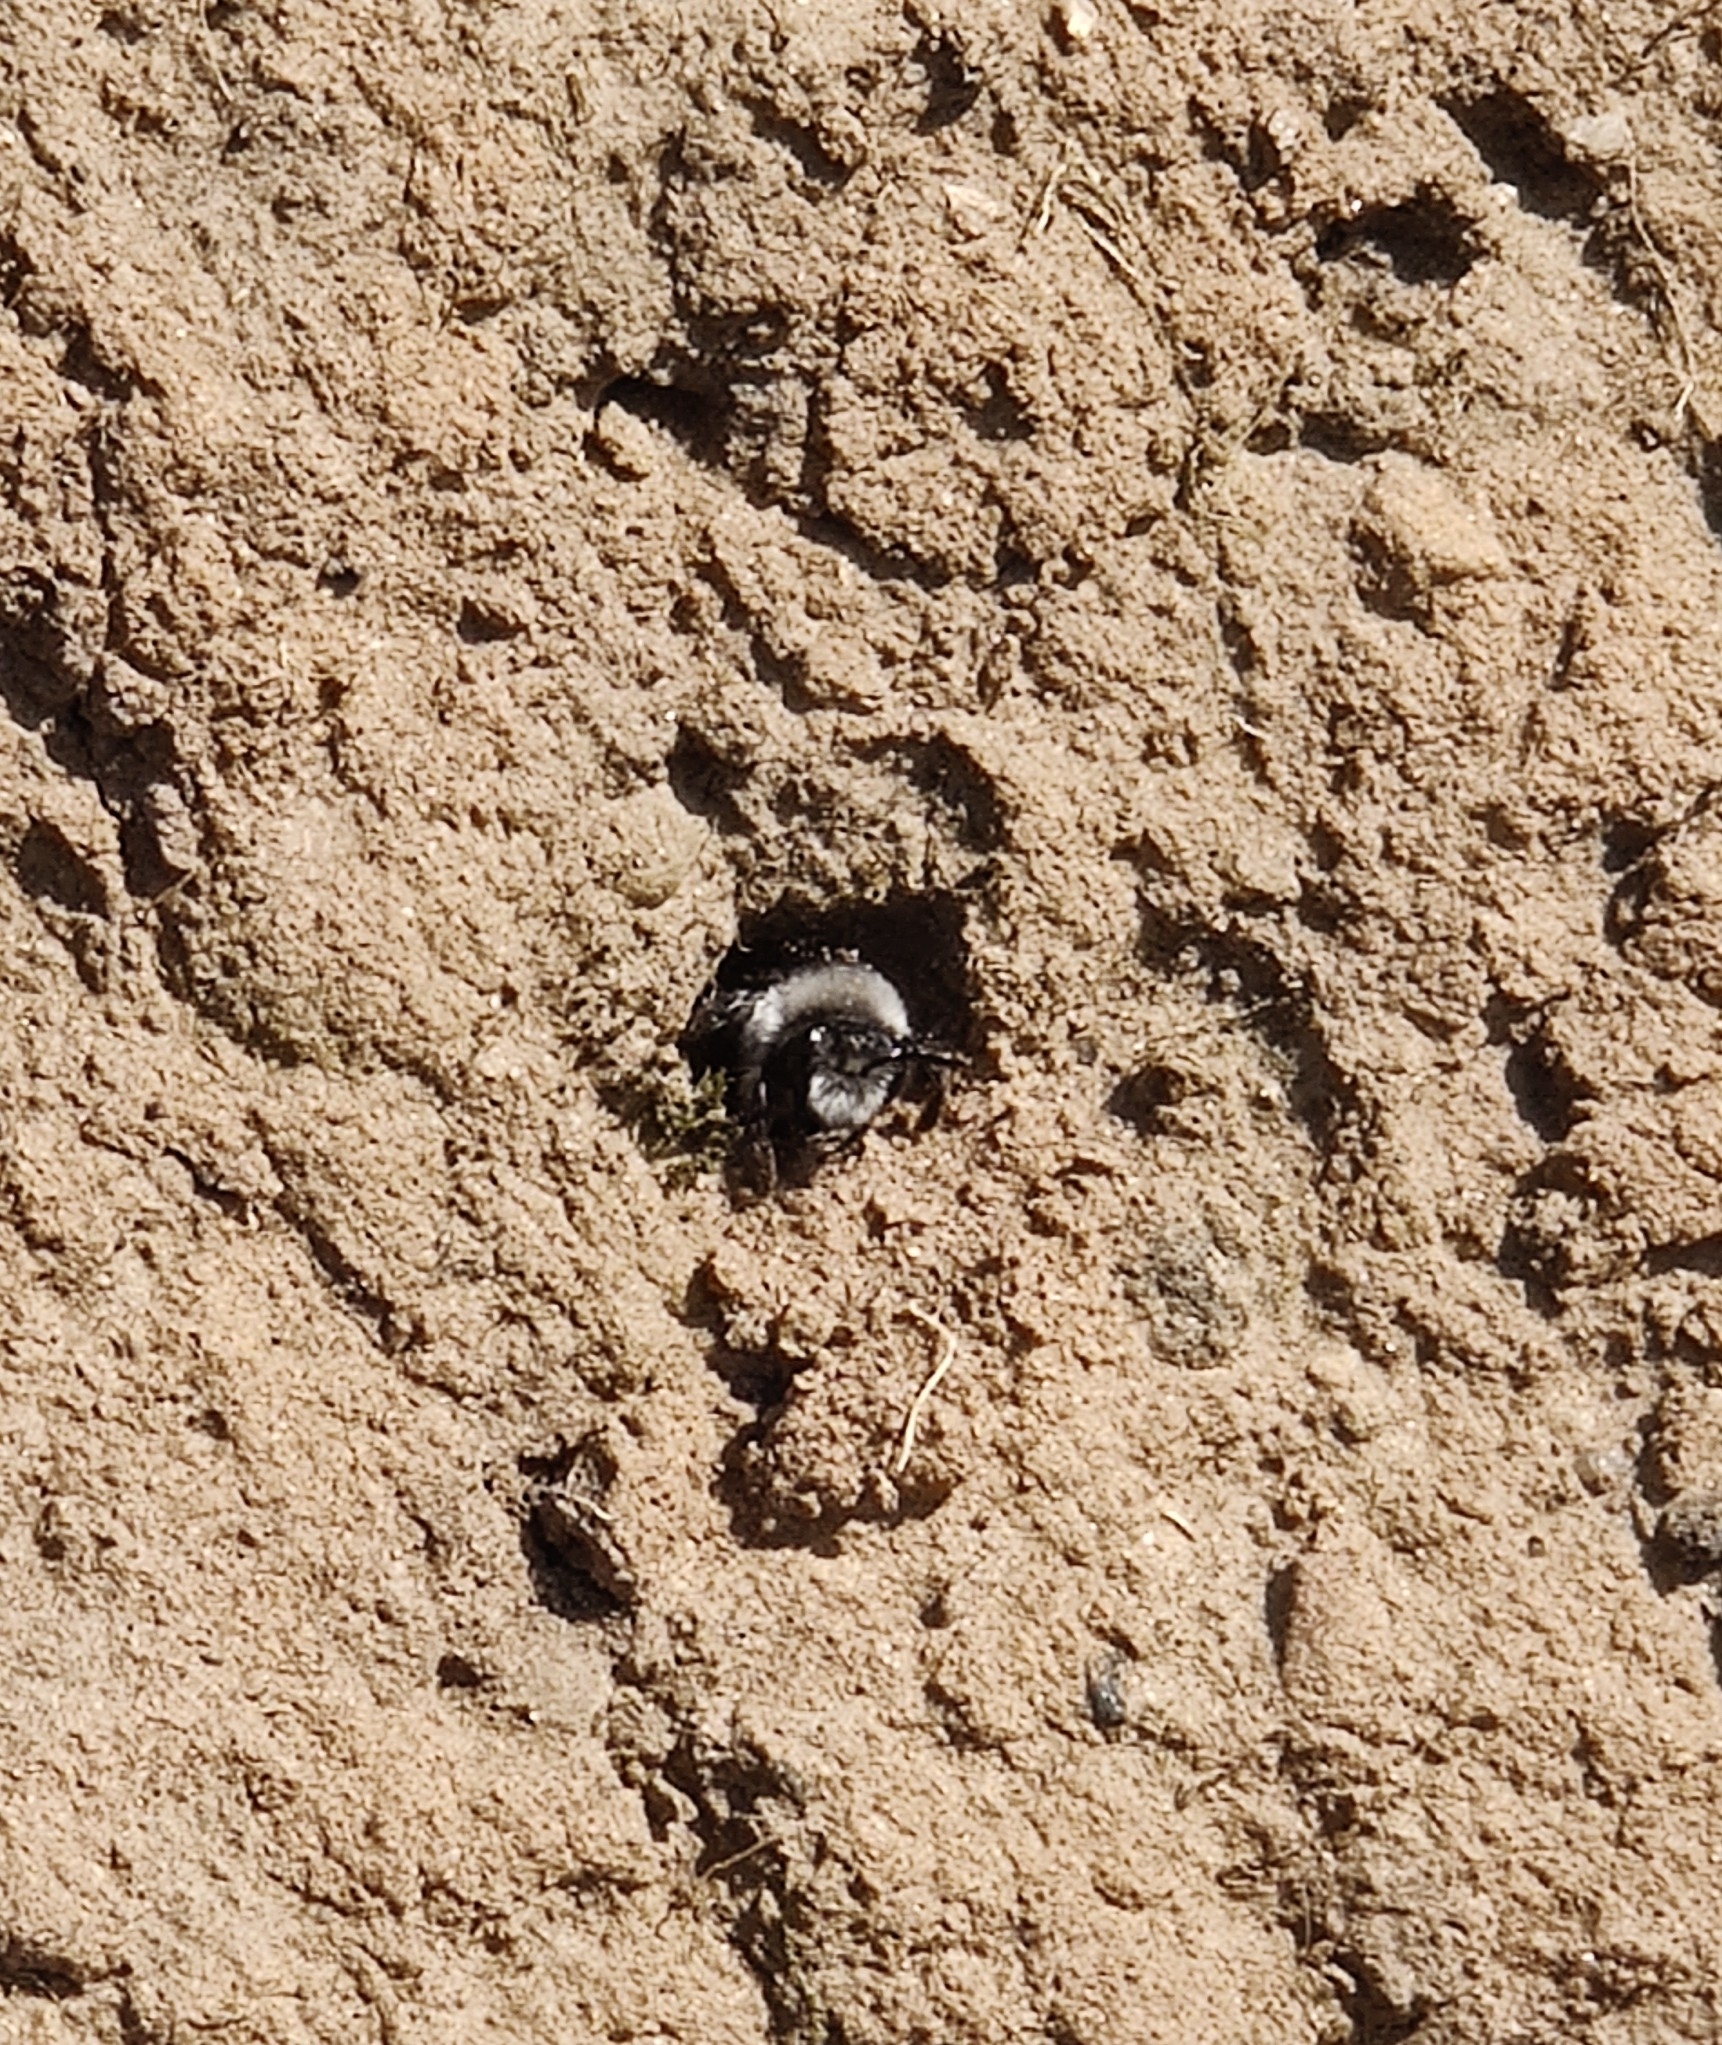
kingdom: Animalia
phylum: Arthropoda
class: Insecta
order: Hymenoptera
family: Andrenidae
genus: Andrena
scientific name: Andrena cineraria
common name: Ashy mining bee
